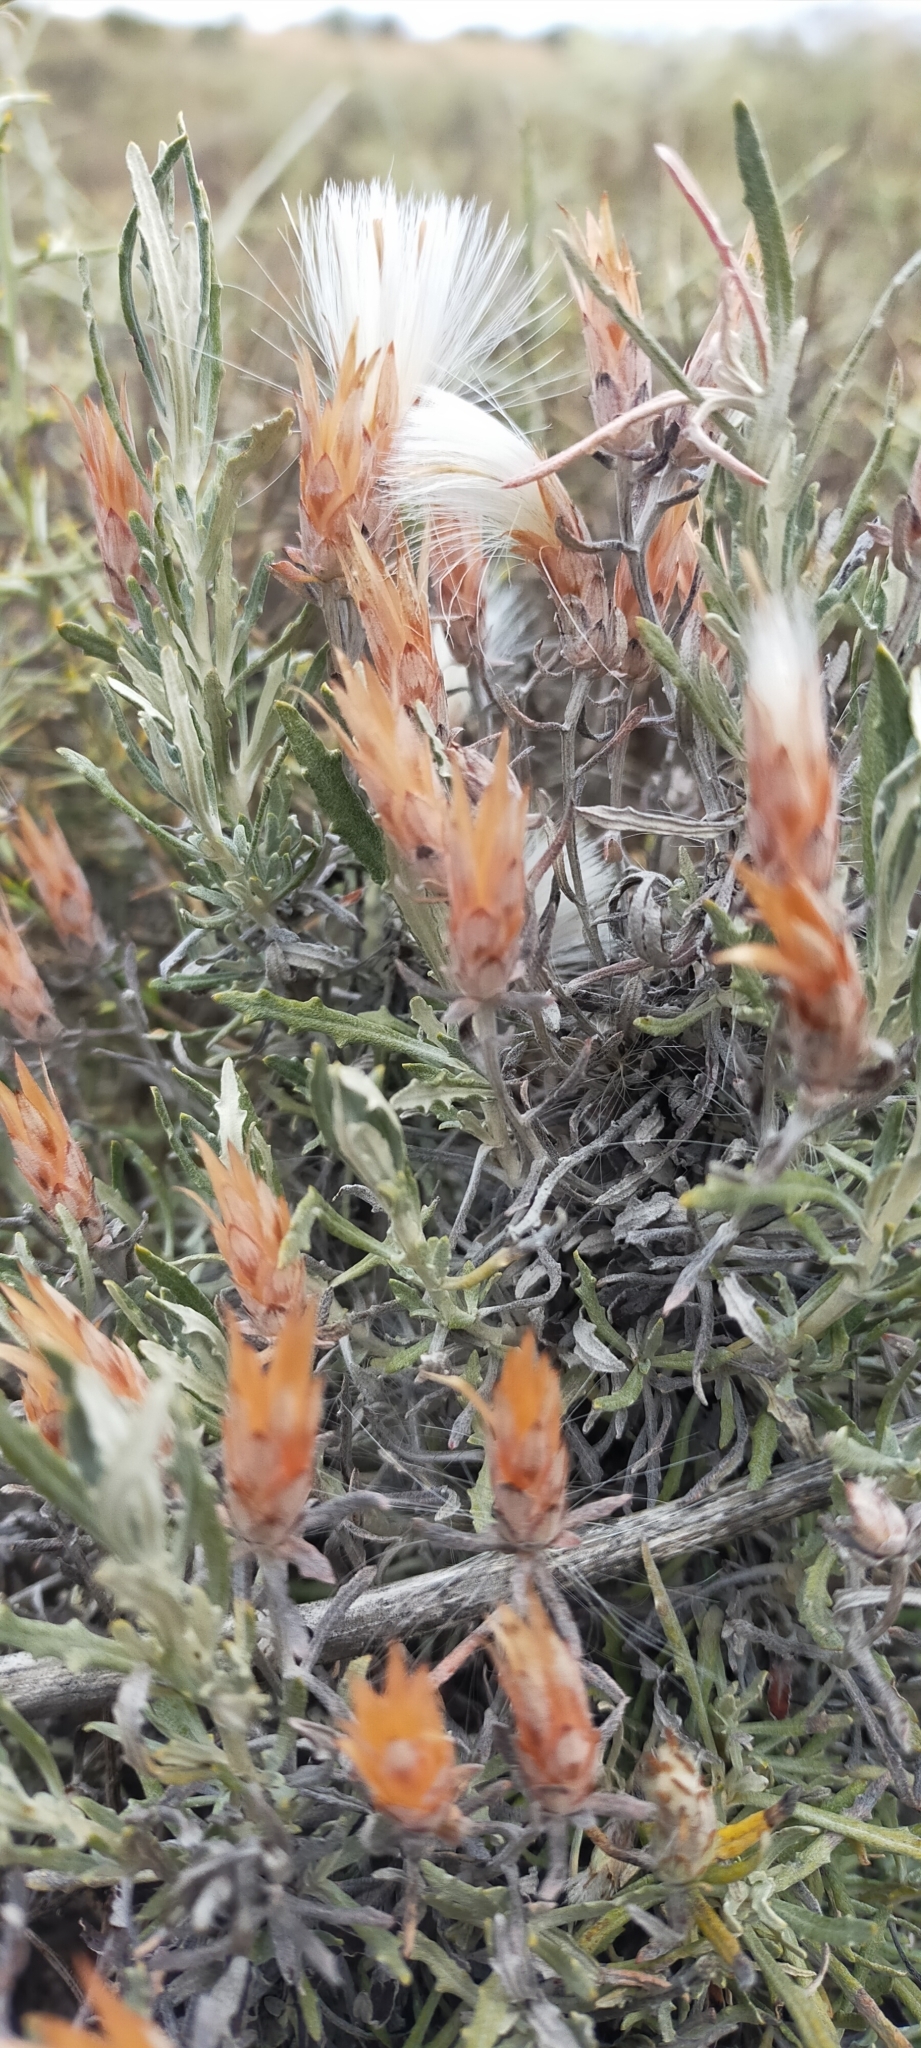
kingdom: Plantae
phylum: Tracheophyta
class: Magnoliopsida
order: Asterales
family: Asteraceae
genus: Staehelina
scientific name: Staehelina dubia
